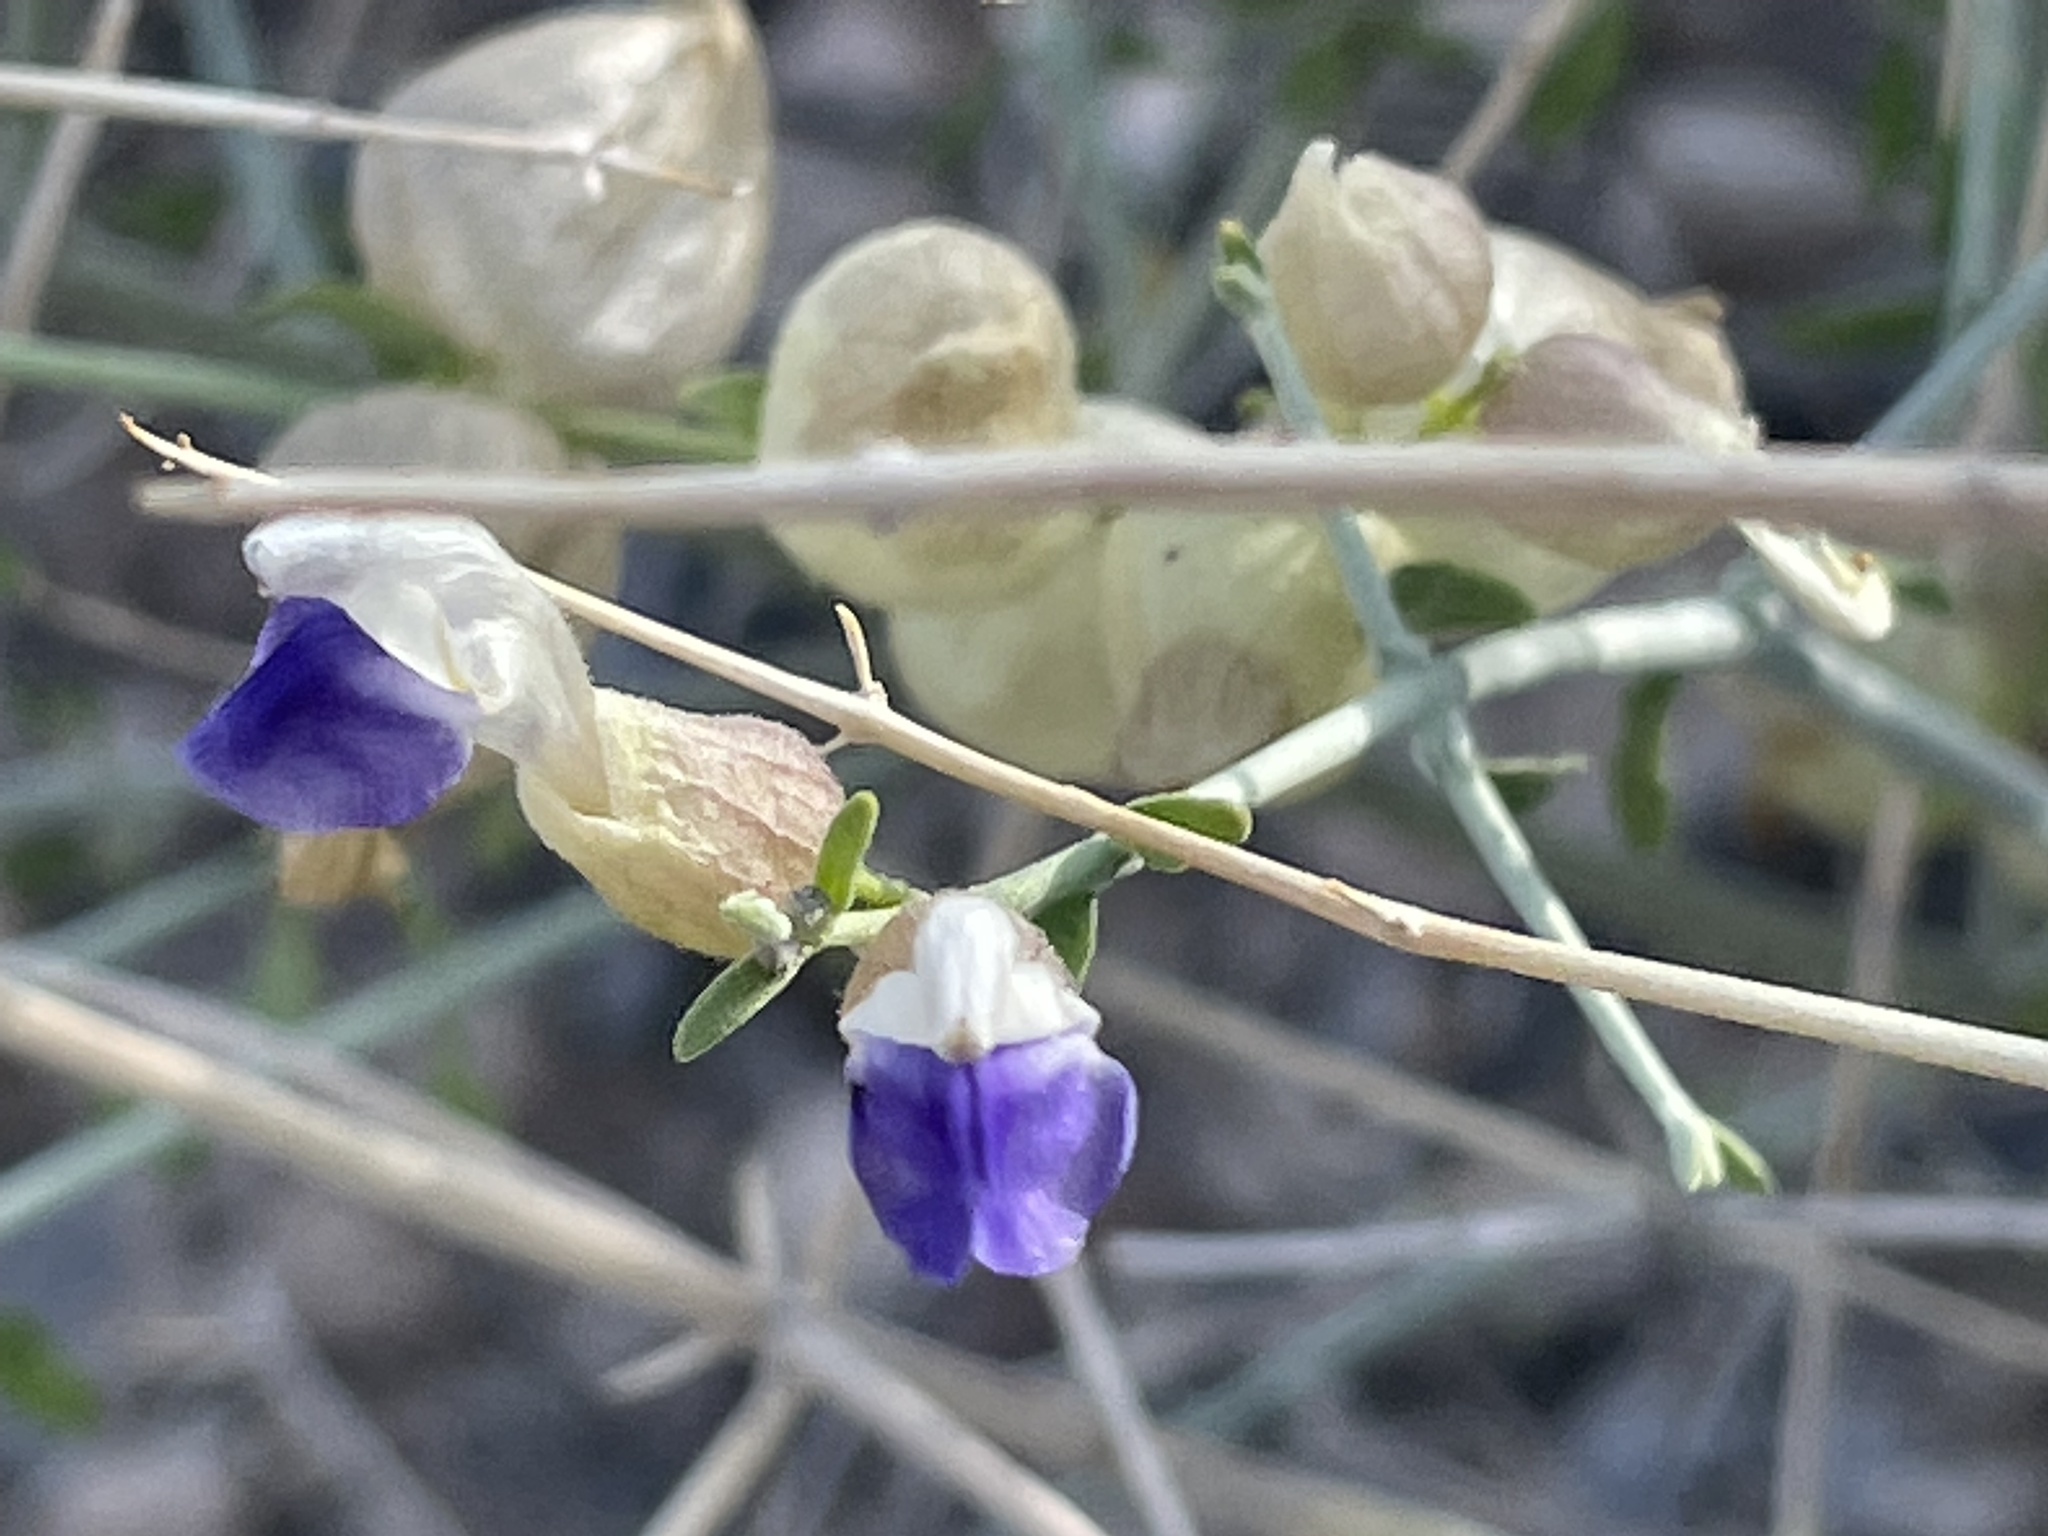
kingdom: Plantae
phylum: Tracheophyta
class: Magnoliopsida
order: Lamiales
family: Lamiaceae
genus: Scutellaria
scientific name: Scutellaria mexicana
